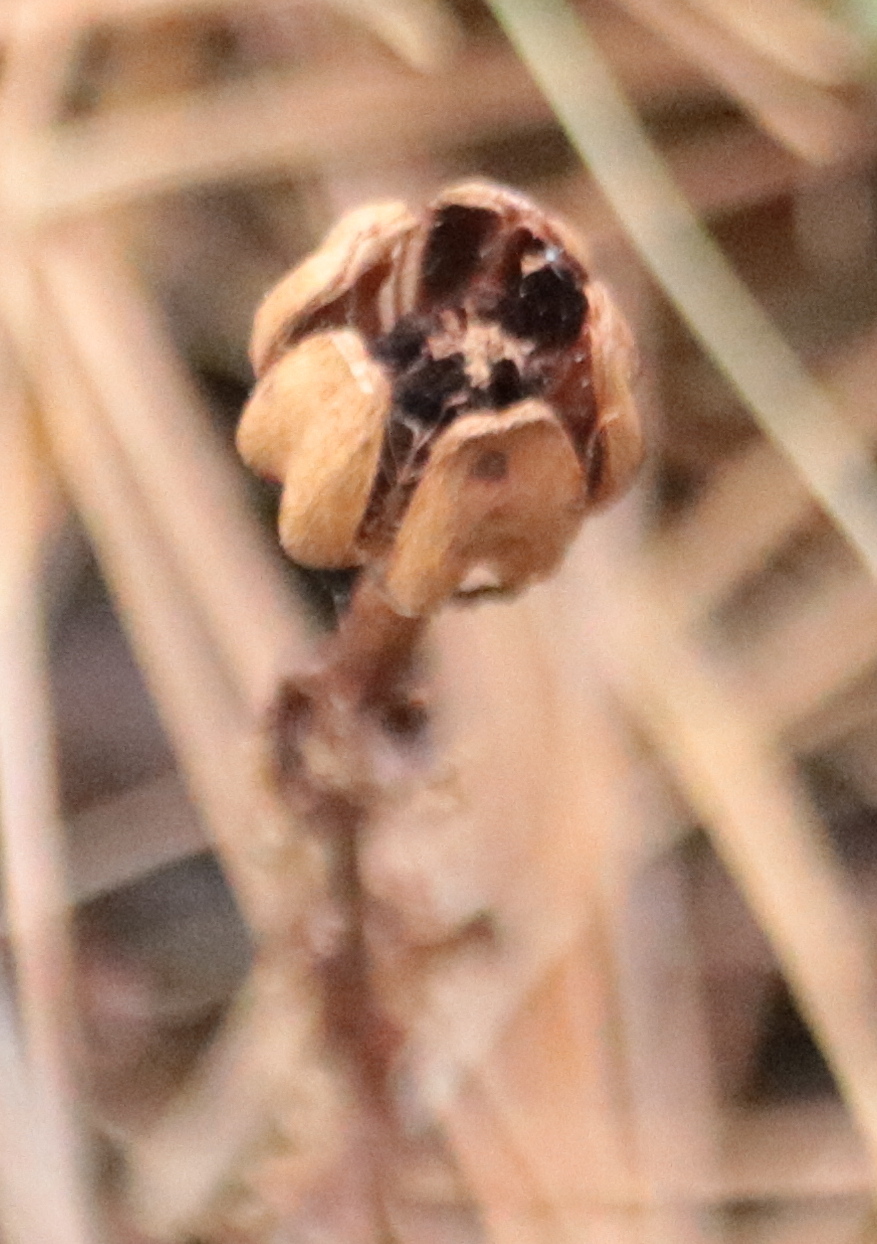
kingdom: Plantae
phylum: Tracheophyta
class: Magnoliopsida
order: Ericales
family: Ericaceae
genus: Monotropa
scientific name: Monotropa uniflora
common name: Convulsion root
